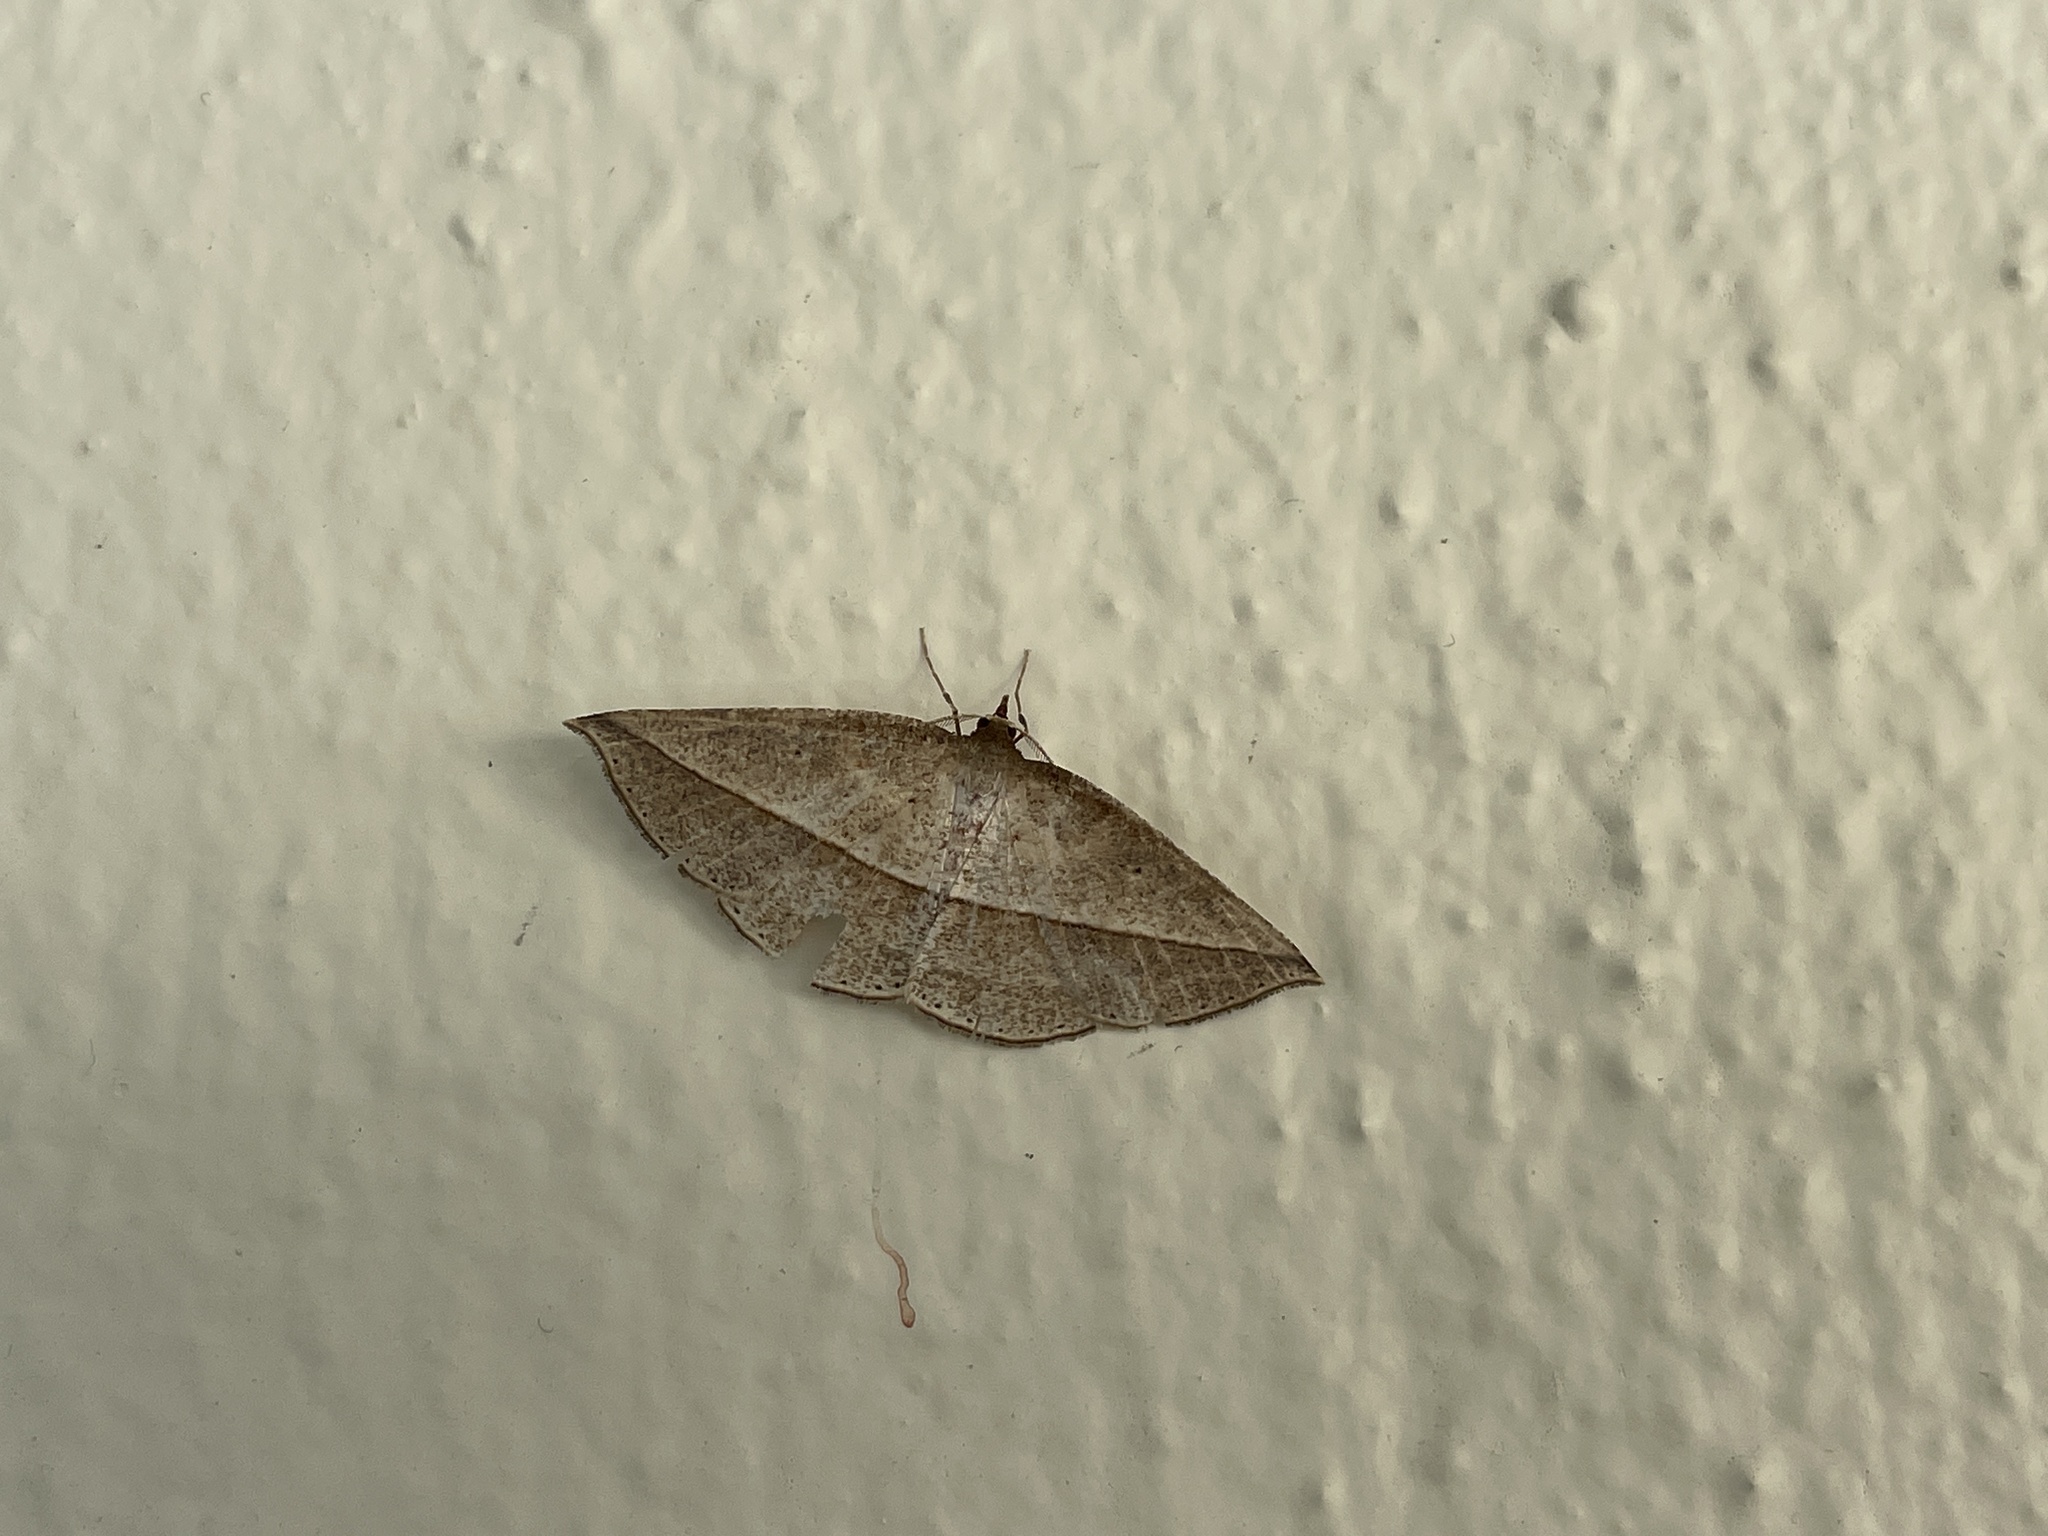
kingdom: Animalia
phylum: Arthropoda
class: Insecta
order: Lepidoptera
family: Geometridae
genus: Heteralex
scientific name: Heteralex unilinea
